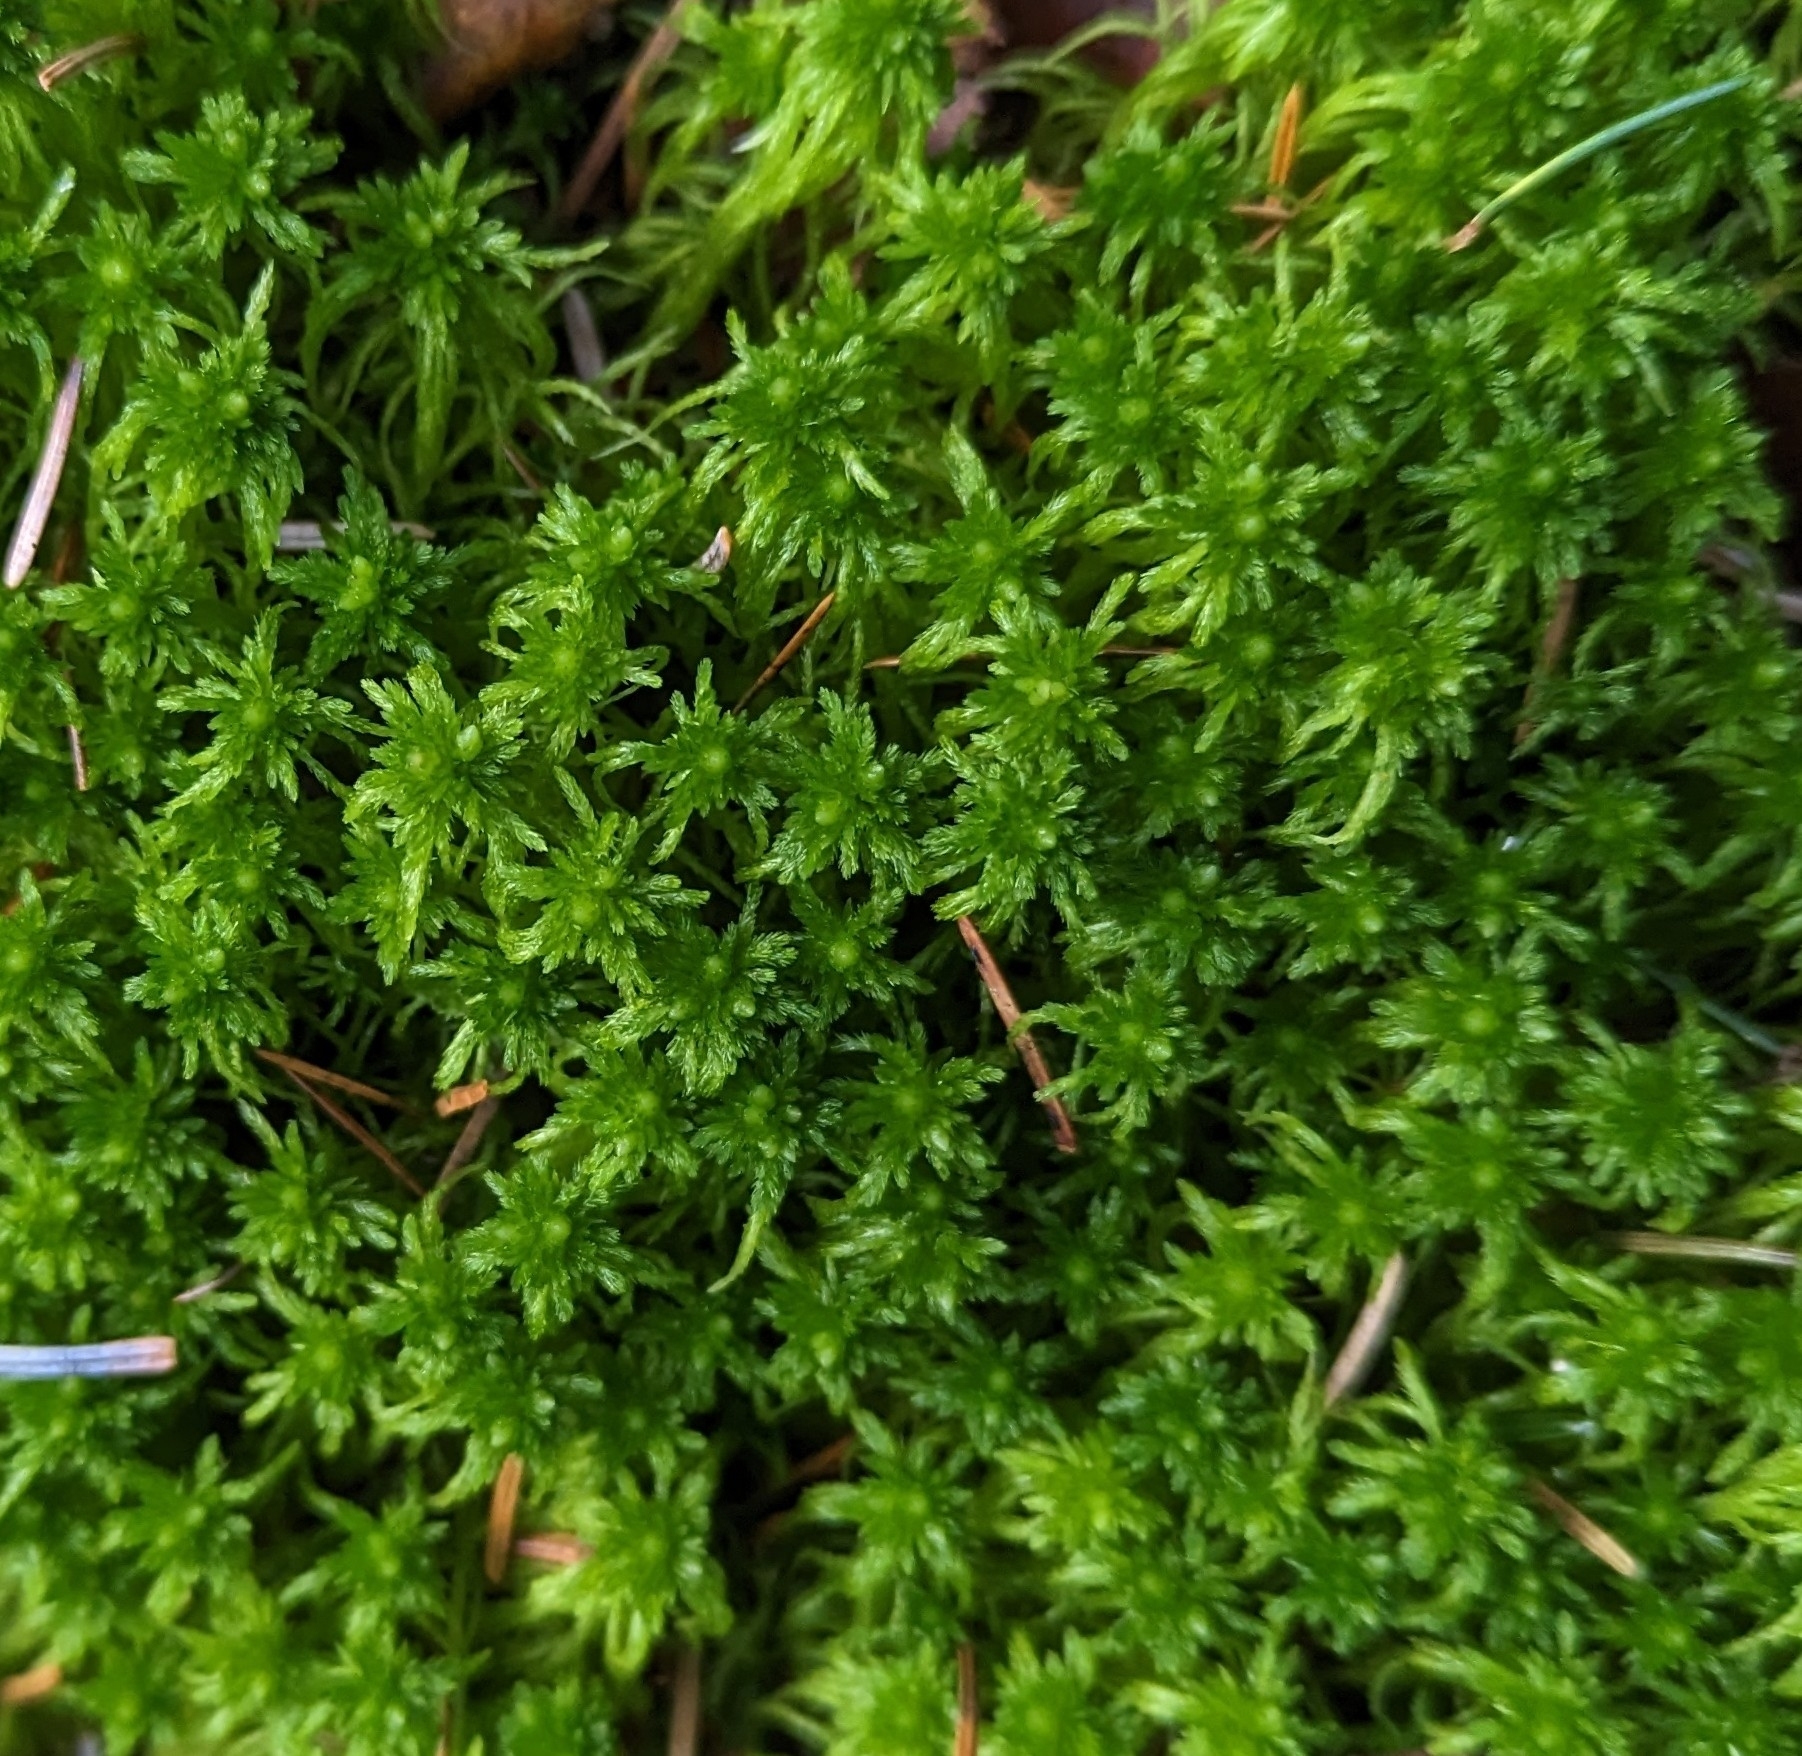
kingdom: Plantae
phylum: Bryophyta
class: Sphagnopsida
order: Sphagnales
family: Sphagnaceae
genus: Sphagnum
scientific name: Sphagnum fimbriatum
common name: Fringed peat moss
